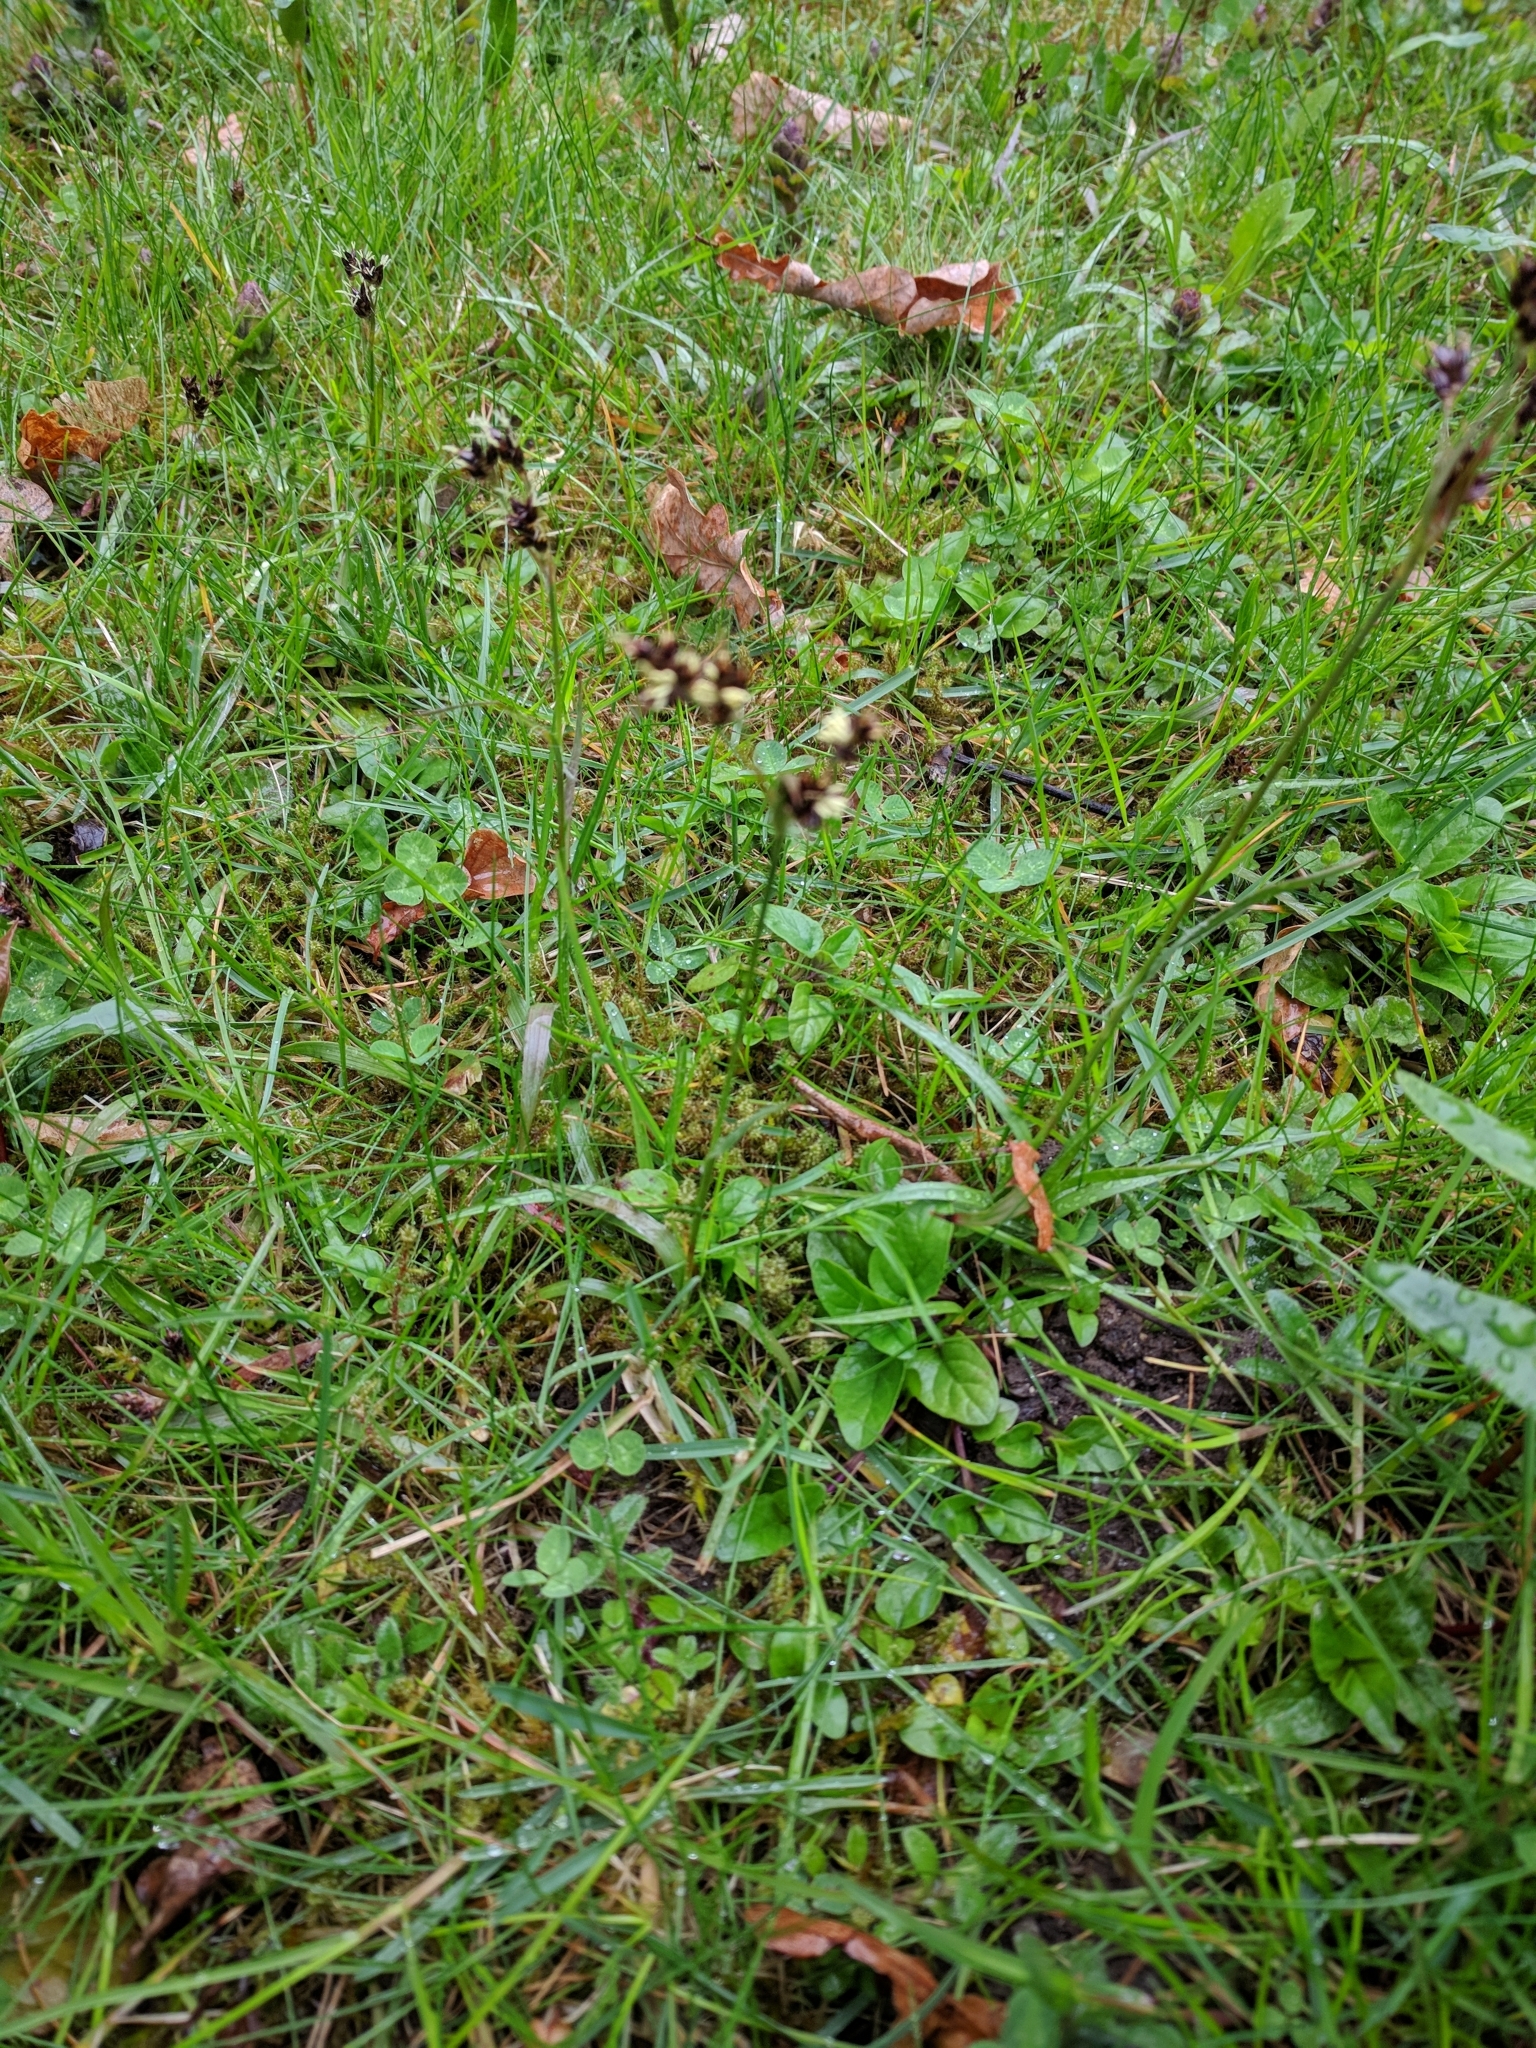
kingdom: Plantae
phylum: Tracheophyta
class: Liliopsida
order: Poales
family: Juncaceae
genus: Luzula
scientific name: Luzula campestris
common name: Field wood-rush
